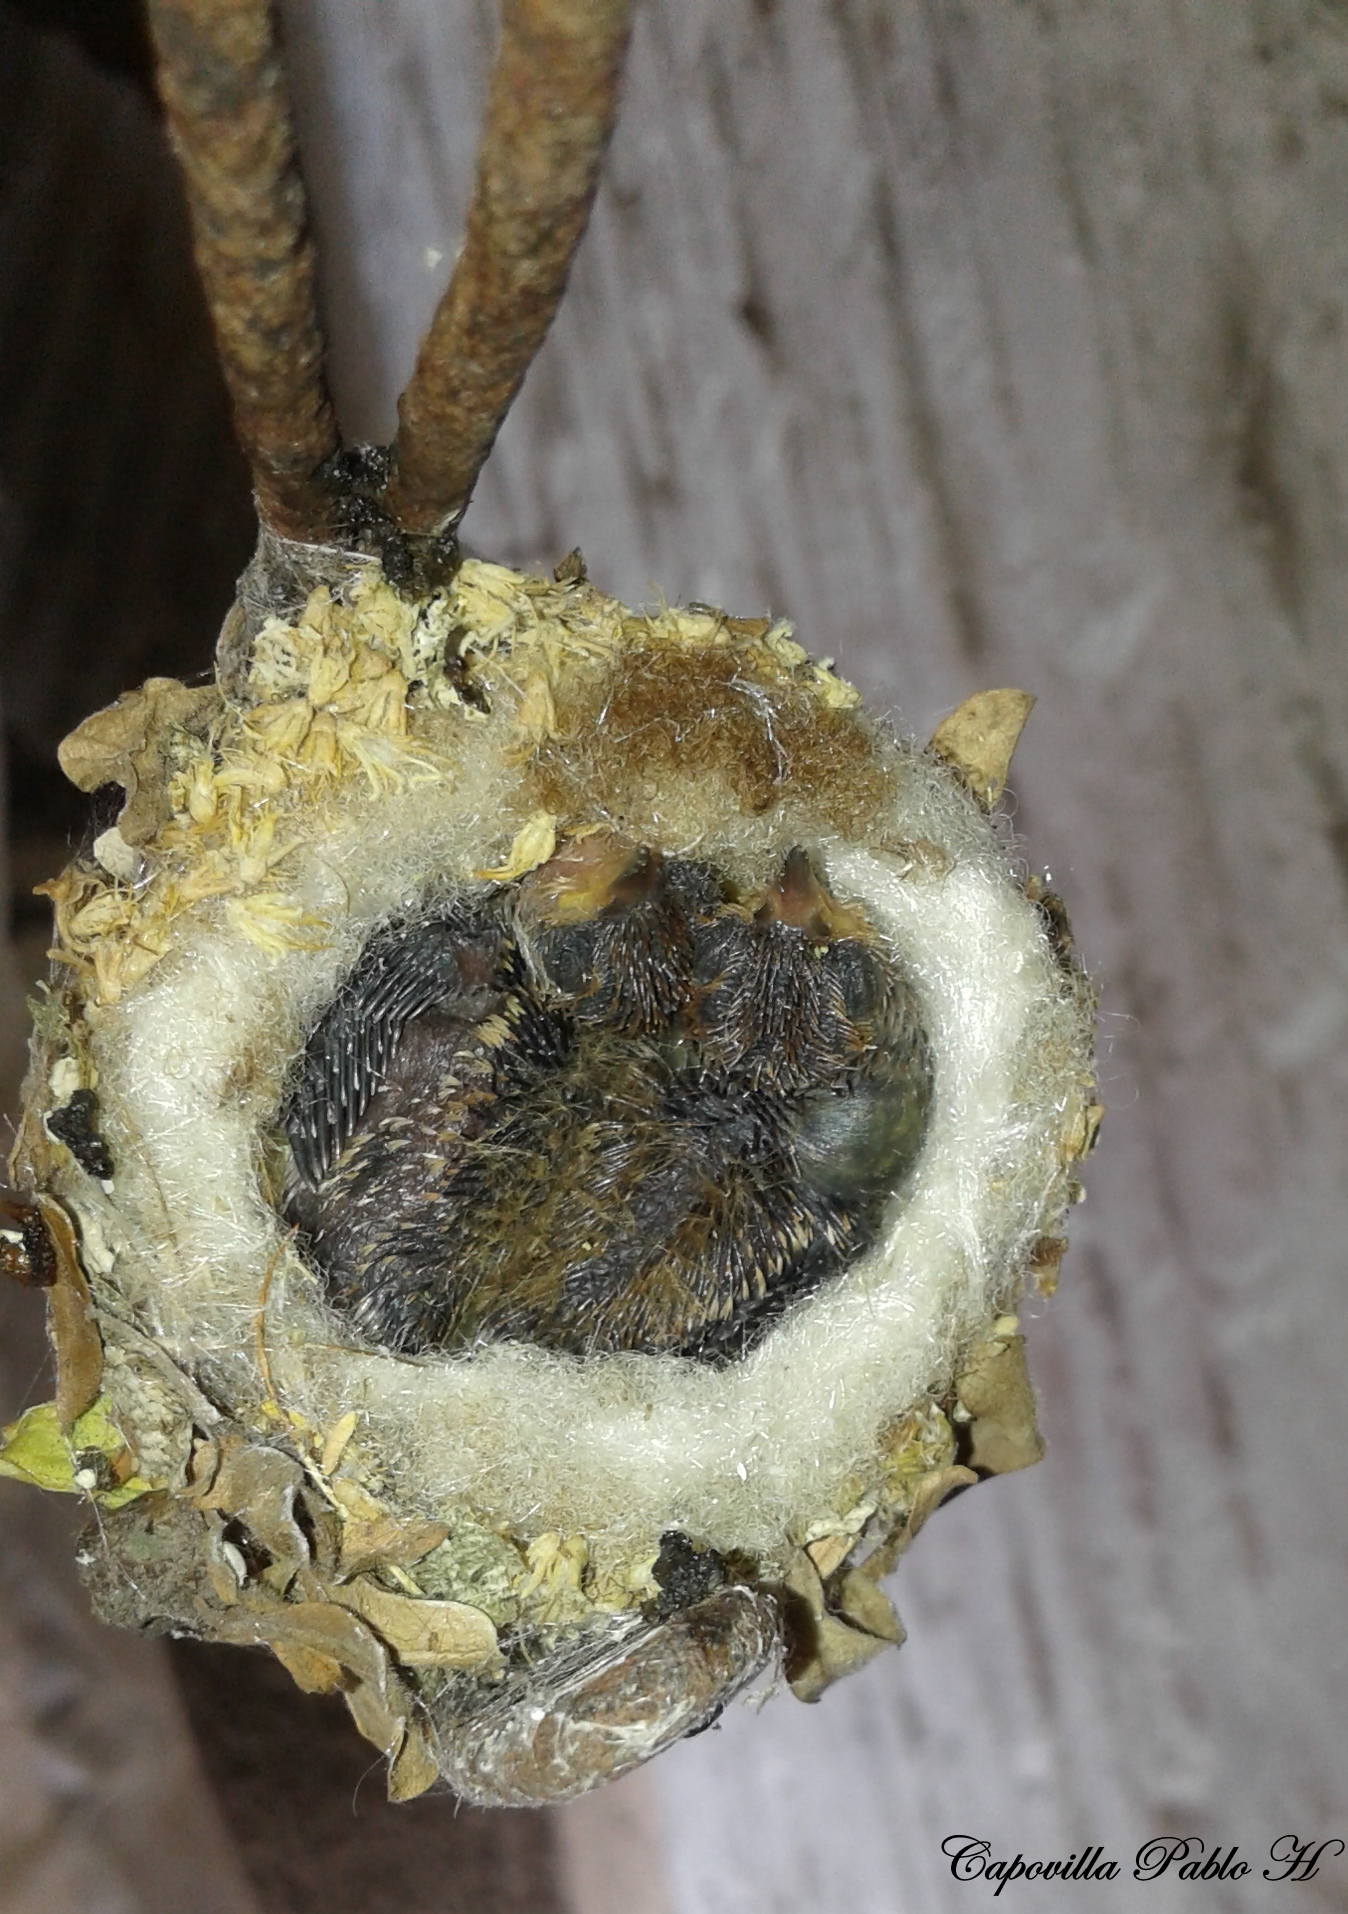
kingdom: Animalia
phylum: Chordata
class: Aves
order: Apodiformes
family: Trochilidae
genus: Chlorostilbon
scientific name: Chlorostilbon lucidus
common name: Glittering-bellied emerald
